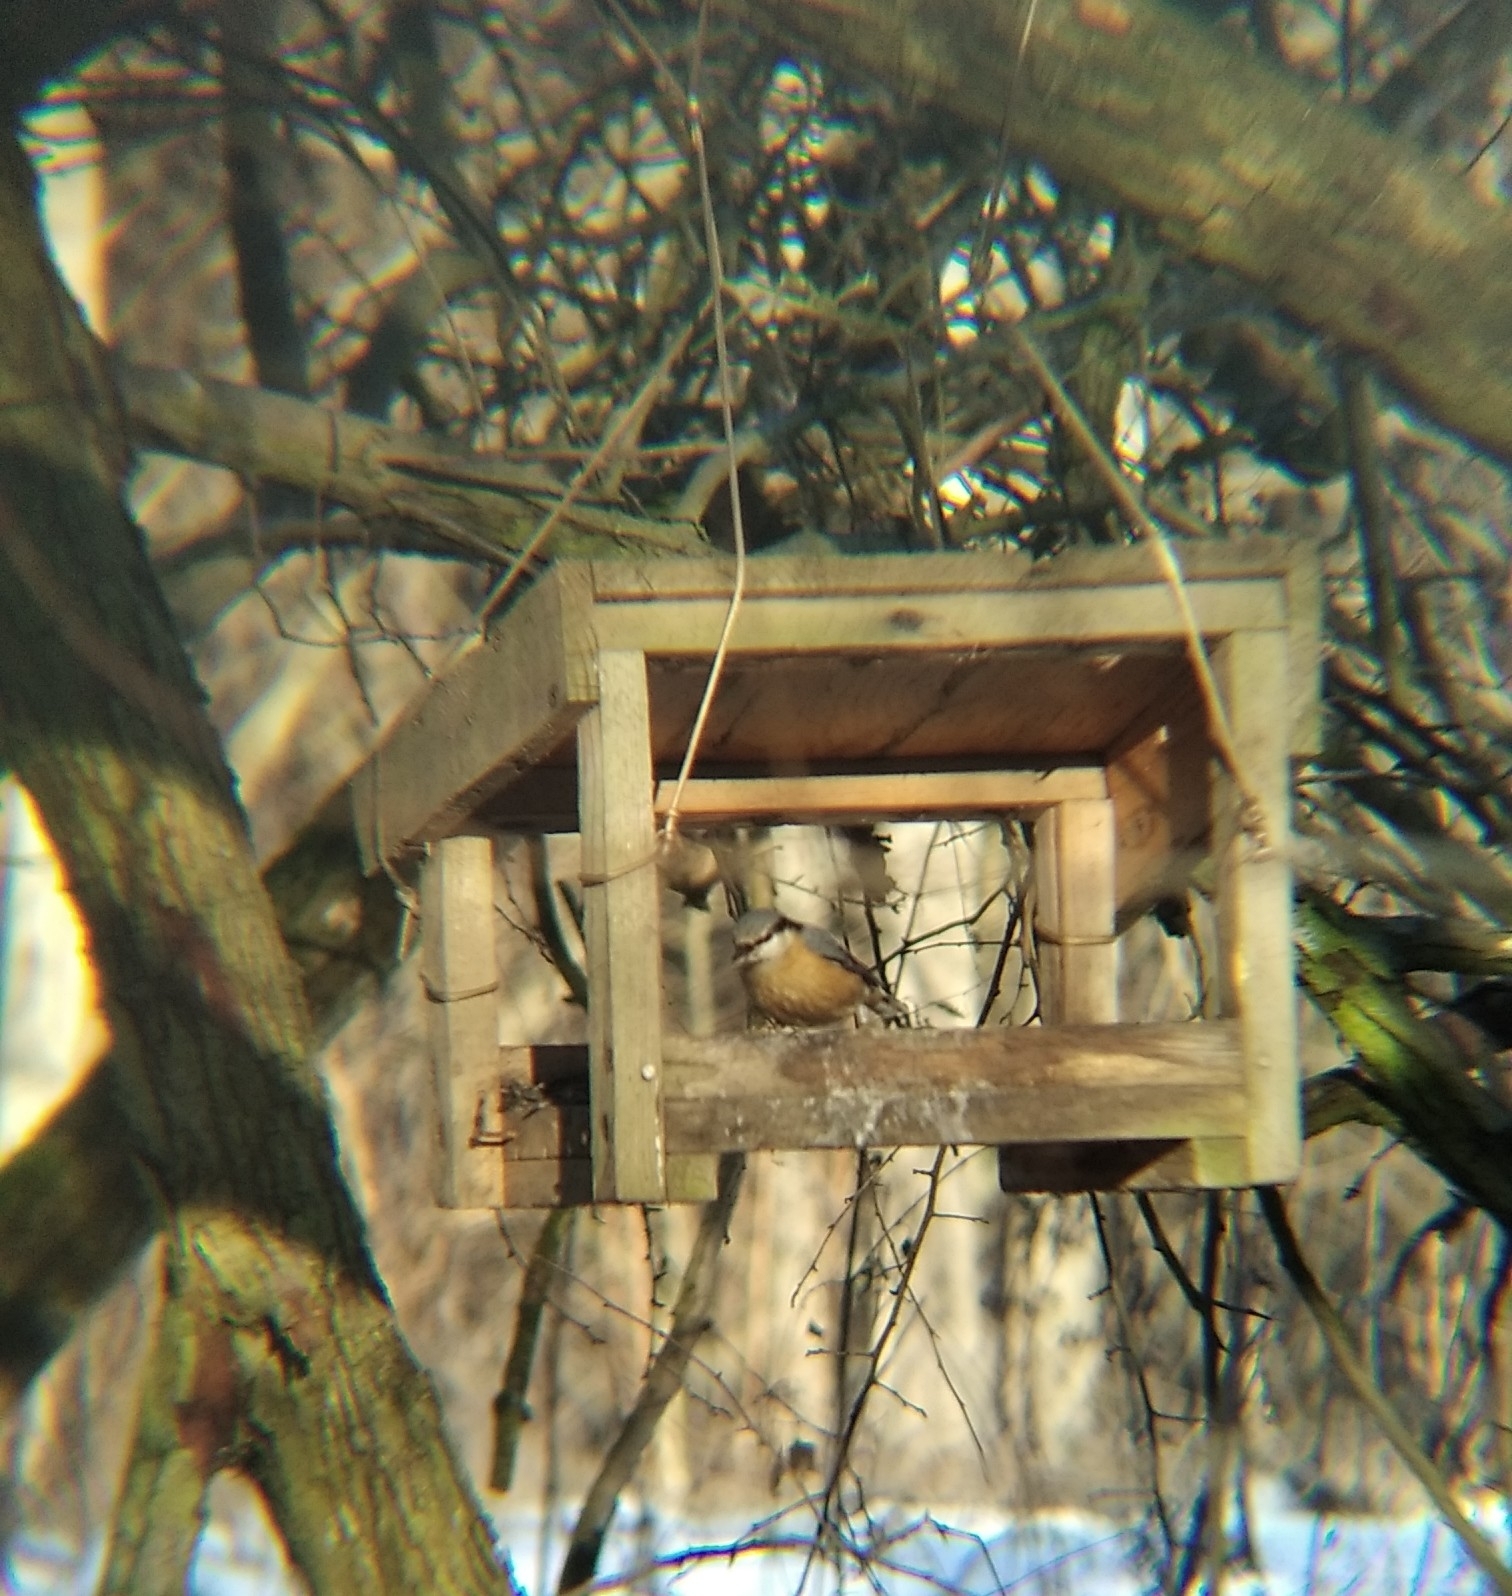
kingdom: Animalia
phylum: Chordata
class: Aves
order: Passeriformes
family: Sittidae
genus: Sitta
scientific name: Sitta europaea
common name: Eurasian nuthatch
